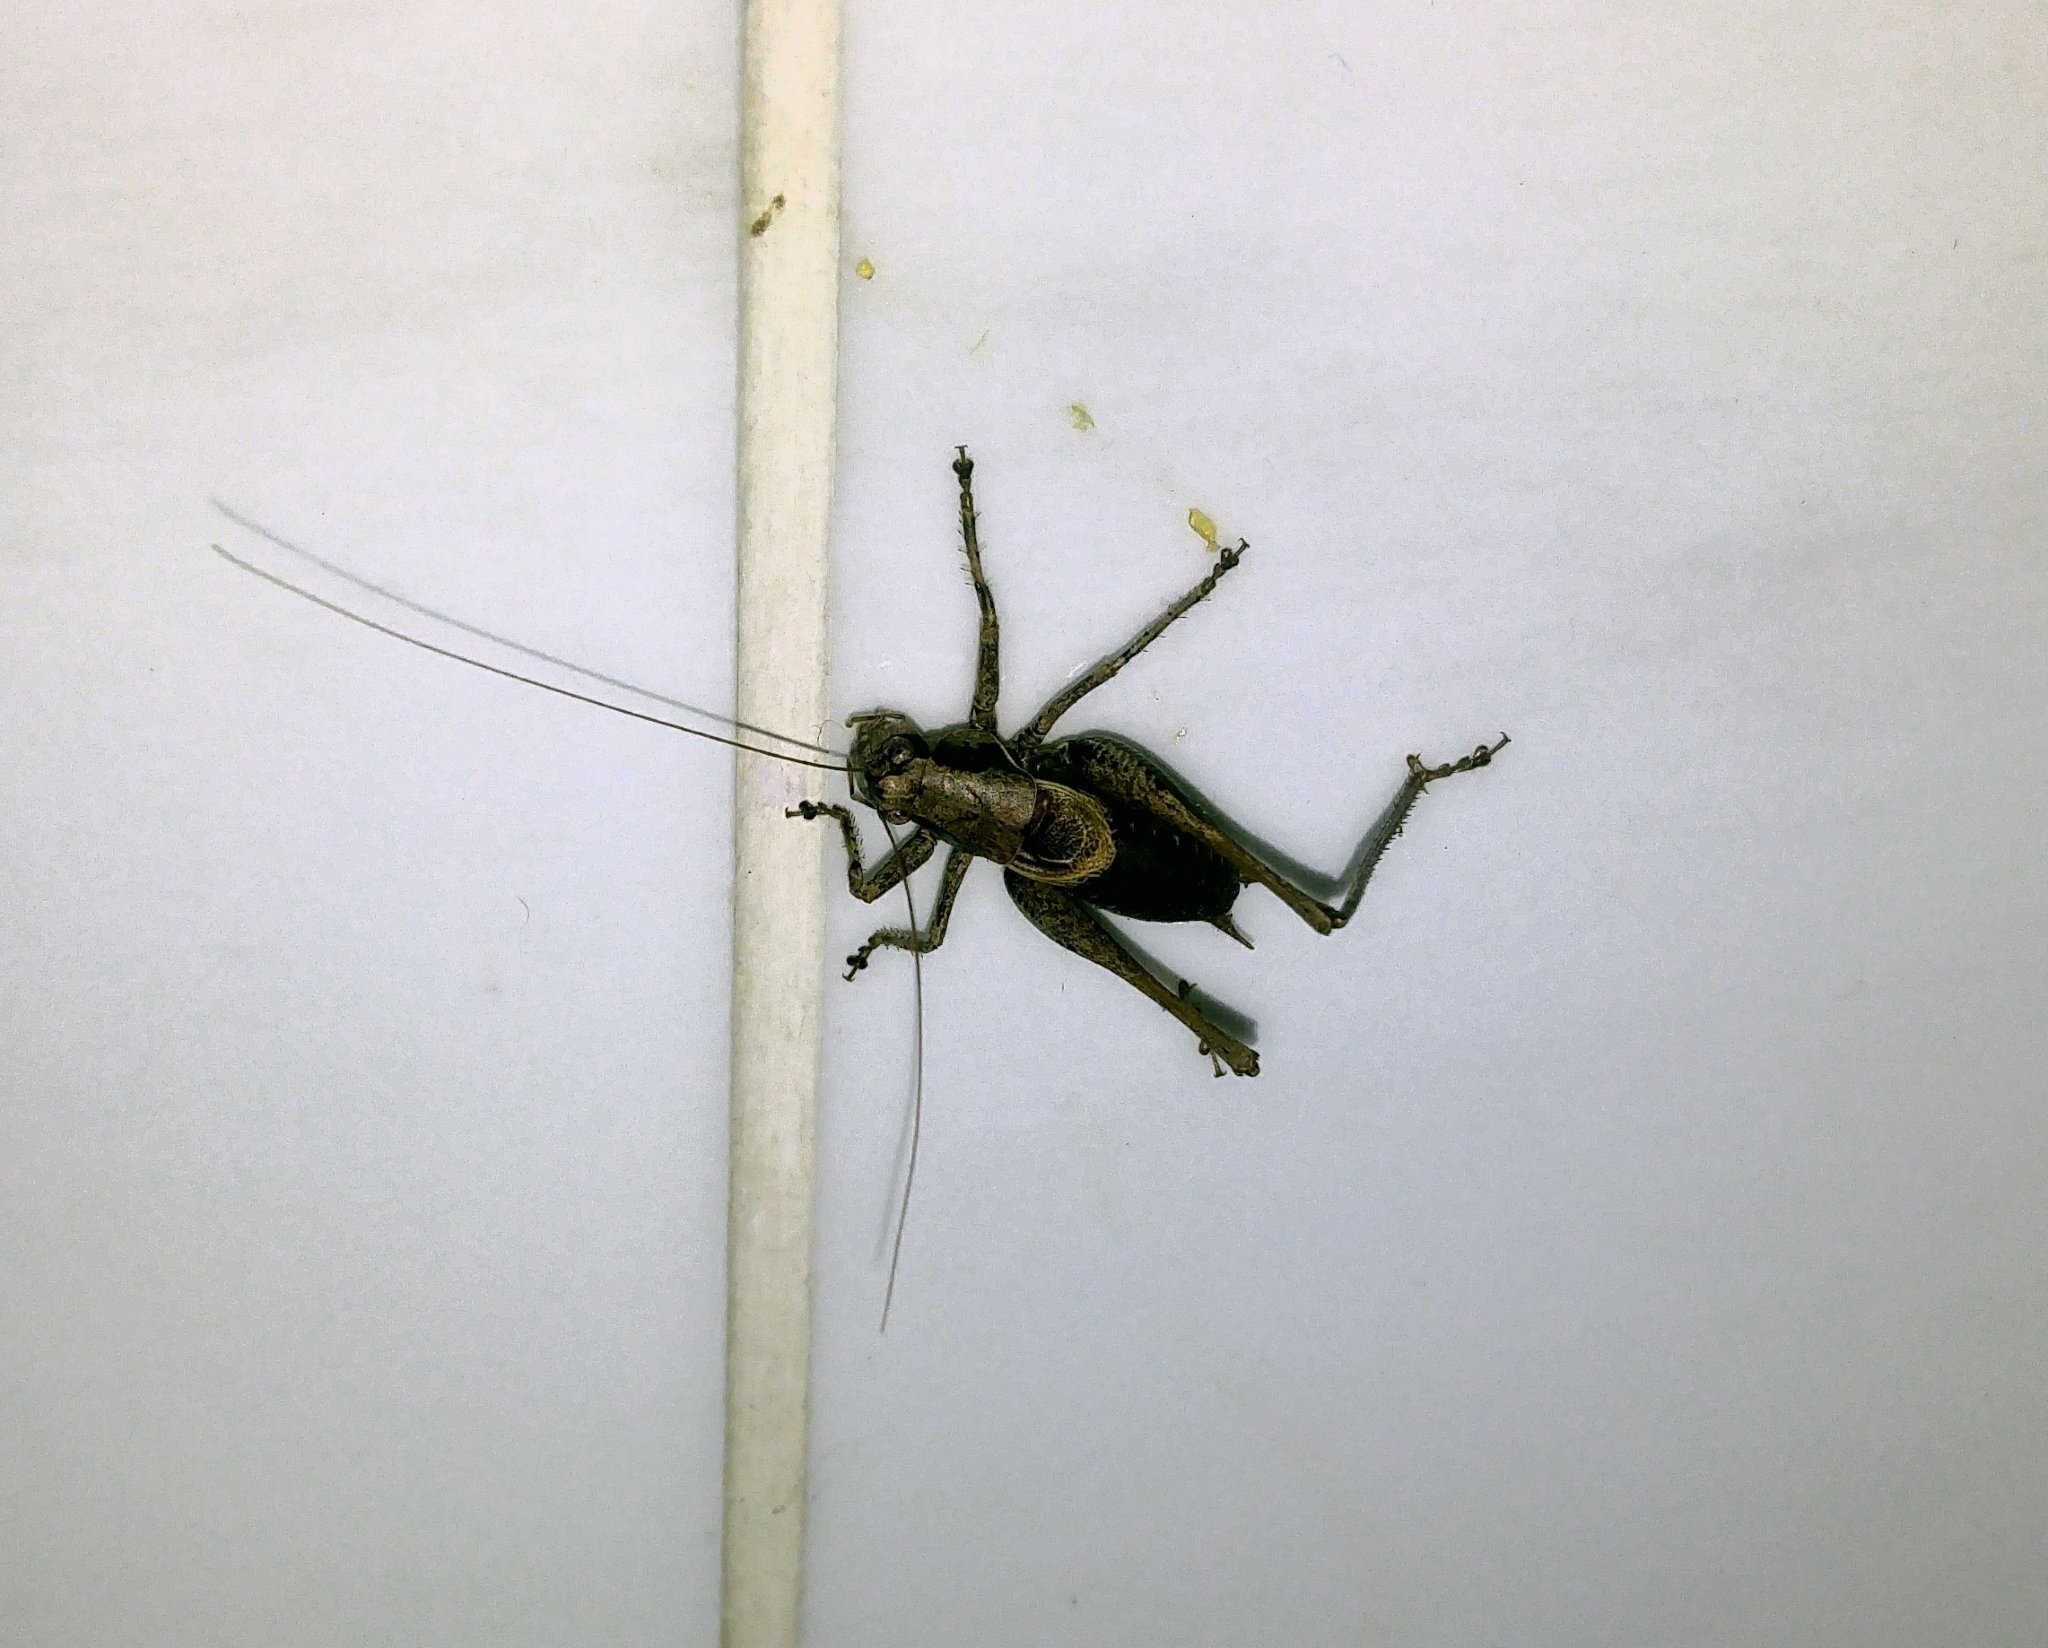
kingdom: Animalia
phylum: Arthropoda
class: Insecta
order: Orthoptera
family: Tettigoniidae
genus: Pholidoptera
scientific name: Pholidoptera griseoaptera
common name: Dark bush-cricket
